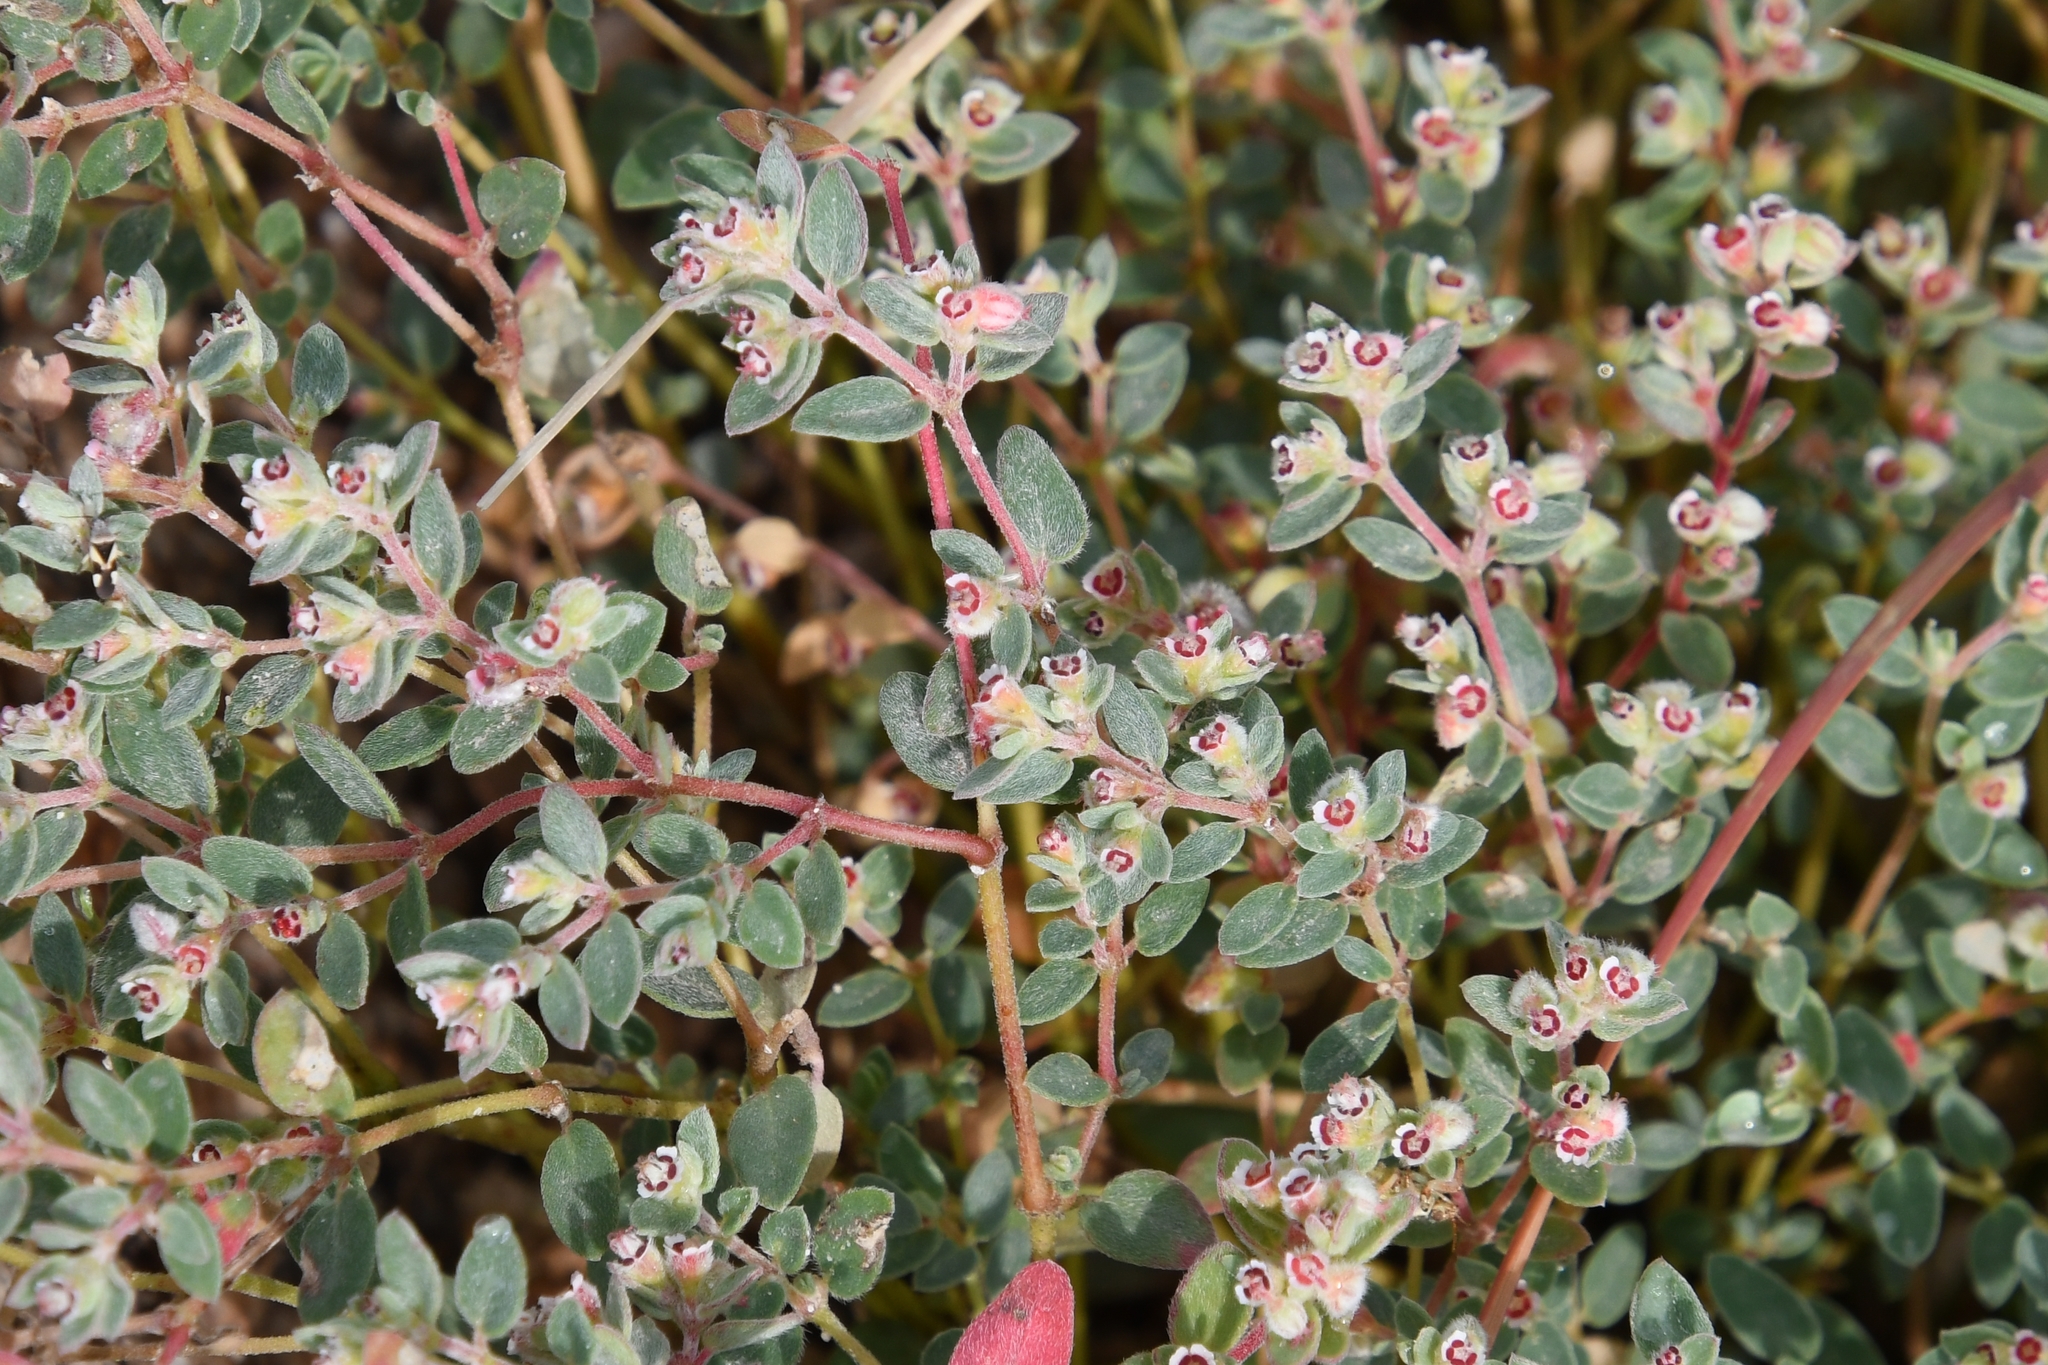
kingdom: Plantae
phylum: Tracheophyta
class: Magnoliopsida
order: Malpighiales
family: Euphorbiaceae
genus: Euphorbia
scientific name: Euphorbia melanadenia
